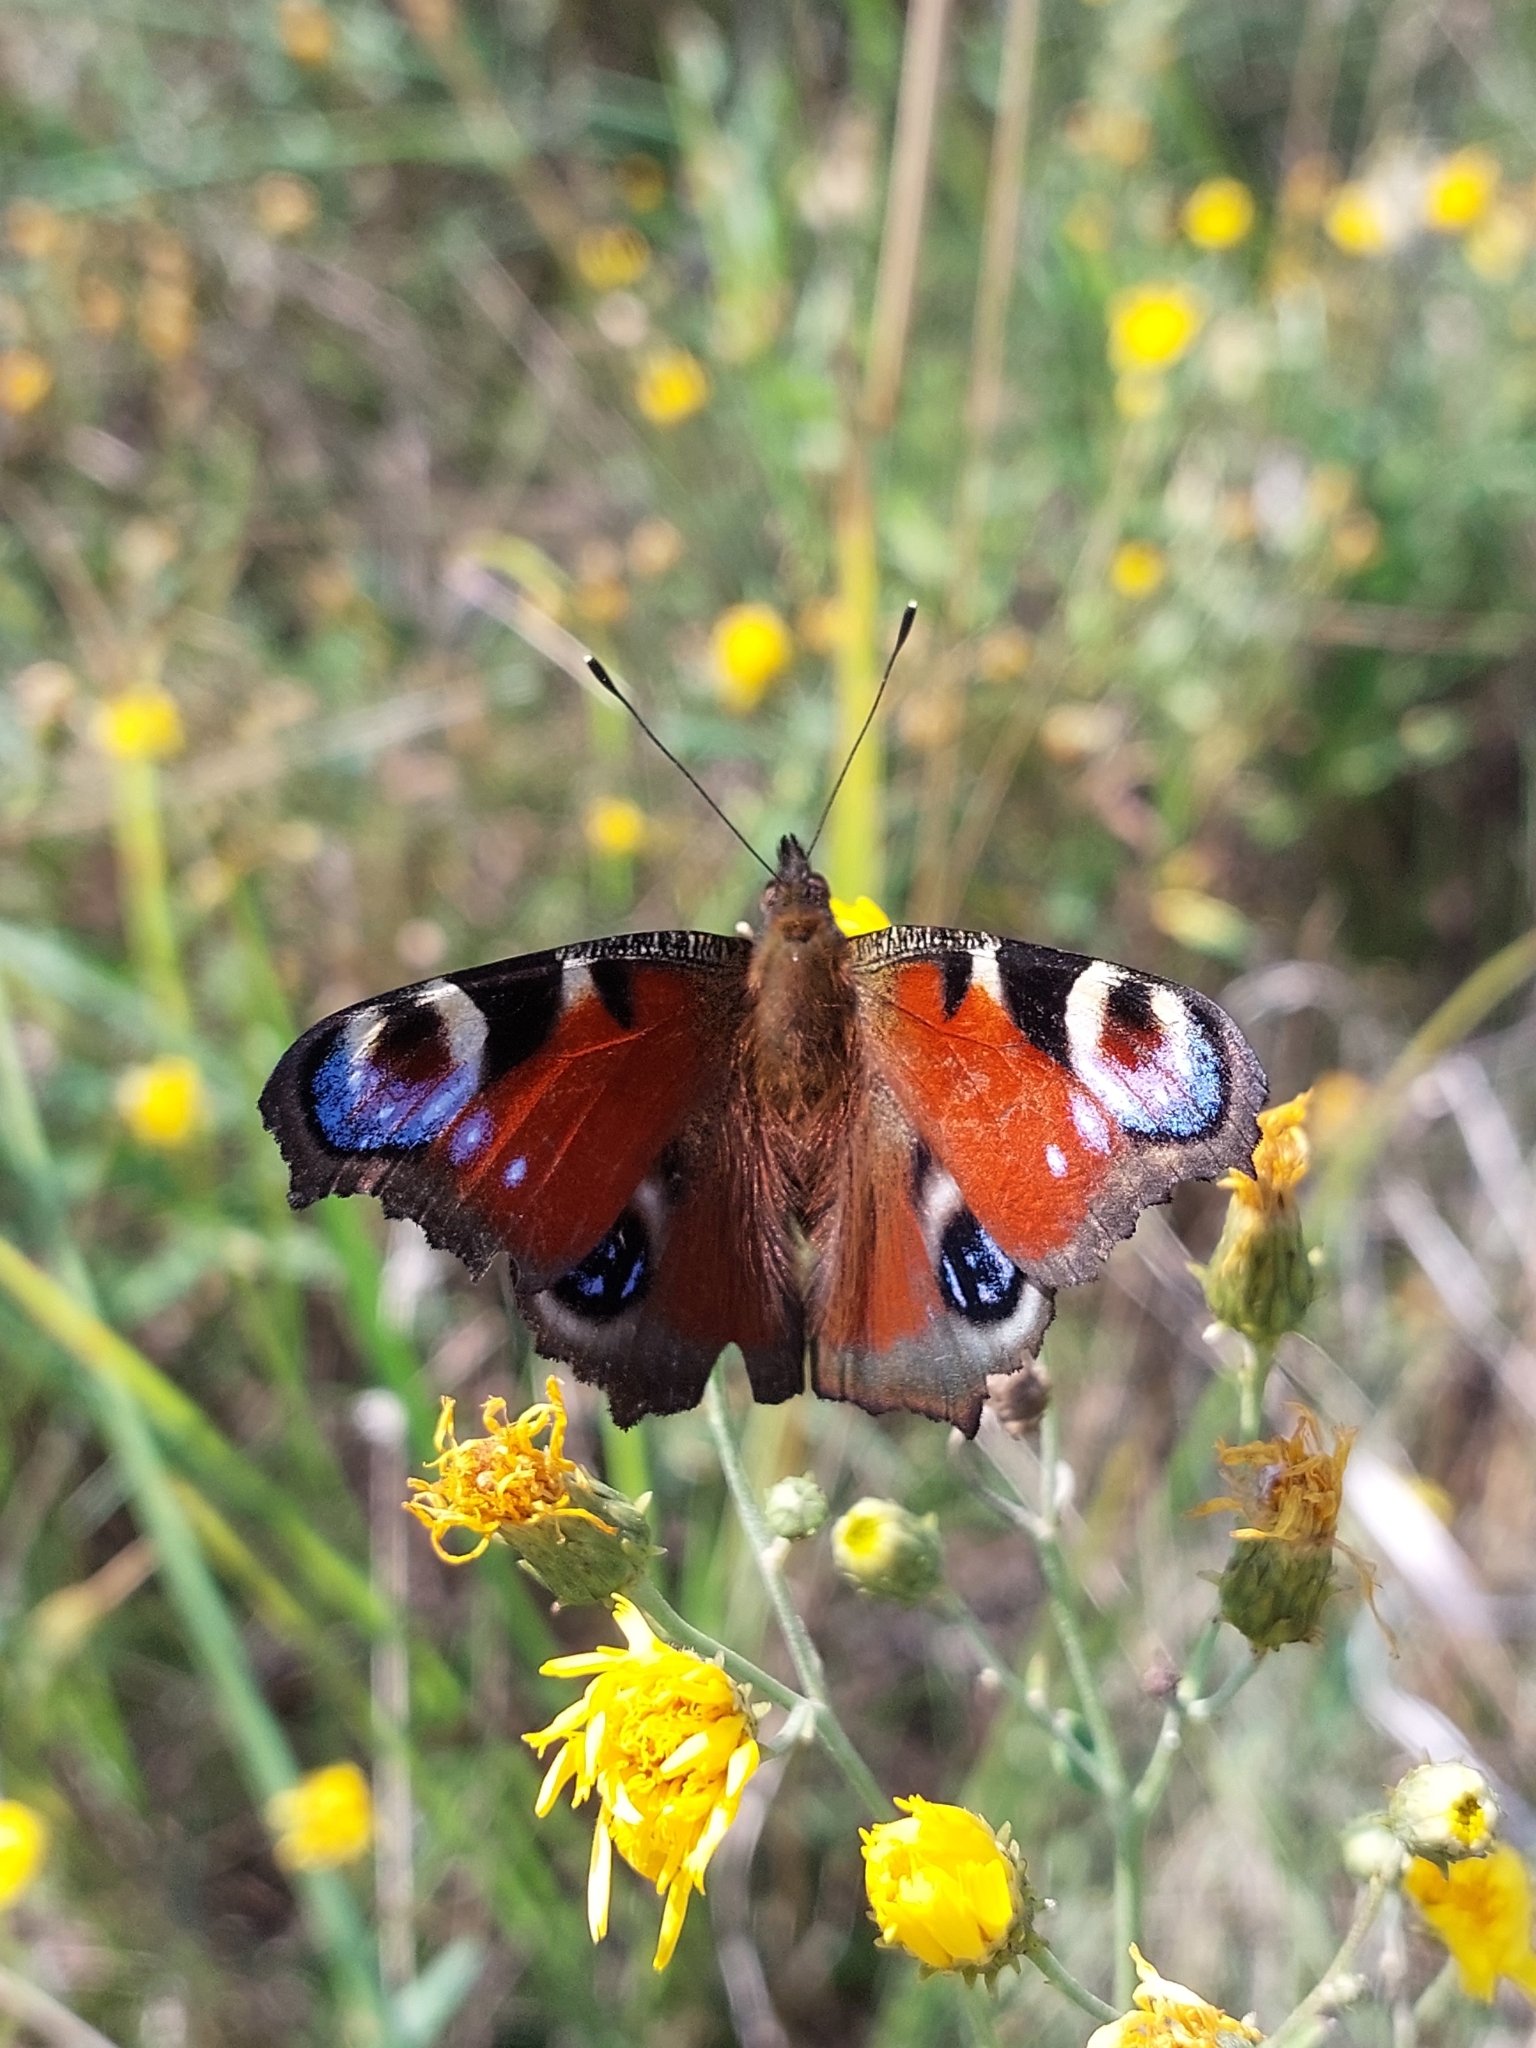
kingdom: Animalia
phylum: Arthropoda
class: Insecta
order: Lepidoptera
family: Nymphalidae
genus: Aglais
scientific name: Aglais io
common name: Peacock
